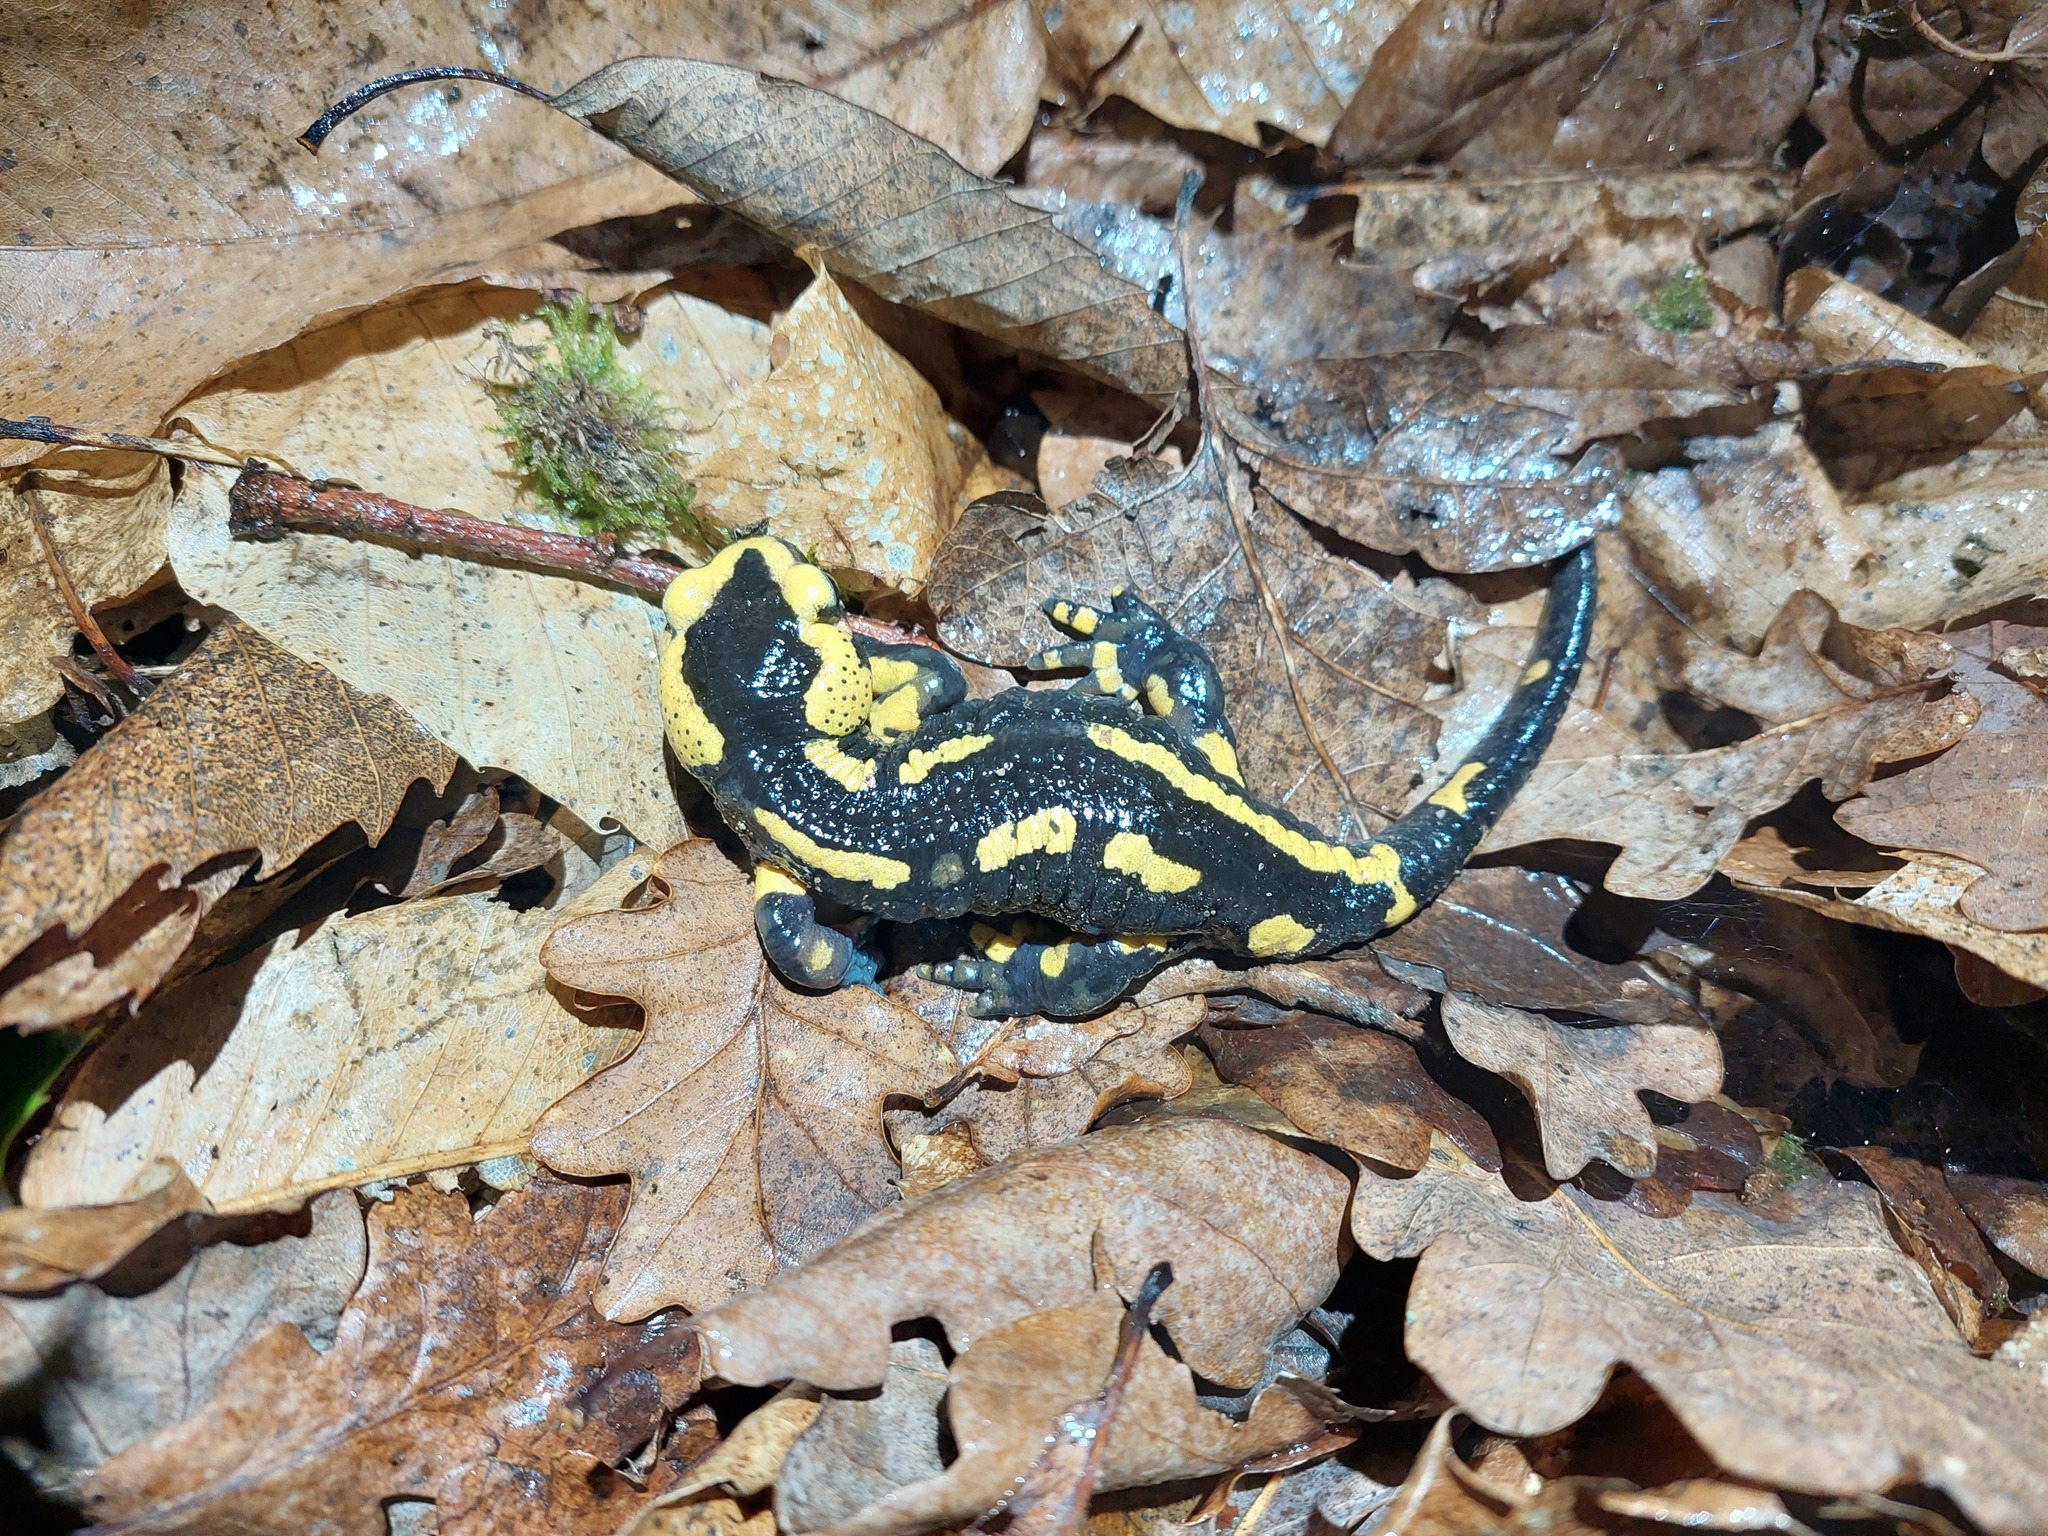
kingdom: Animalia
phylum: Chordata
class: Amphibia
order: Caudata
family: Salamandridae
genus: Salamandra
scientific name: Salamandra salamandra
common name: Fire salamander
